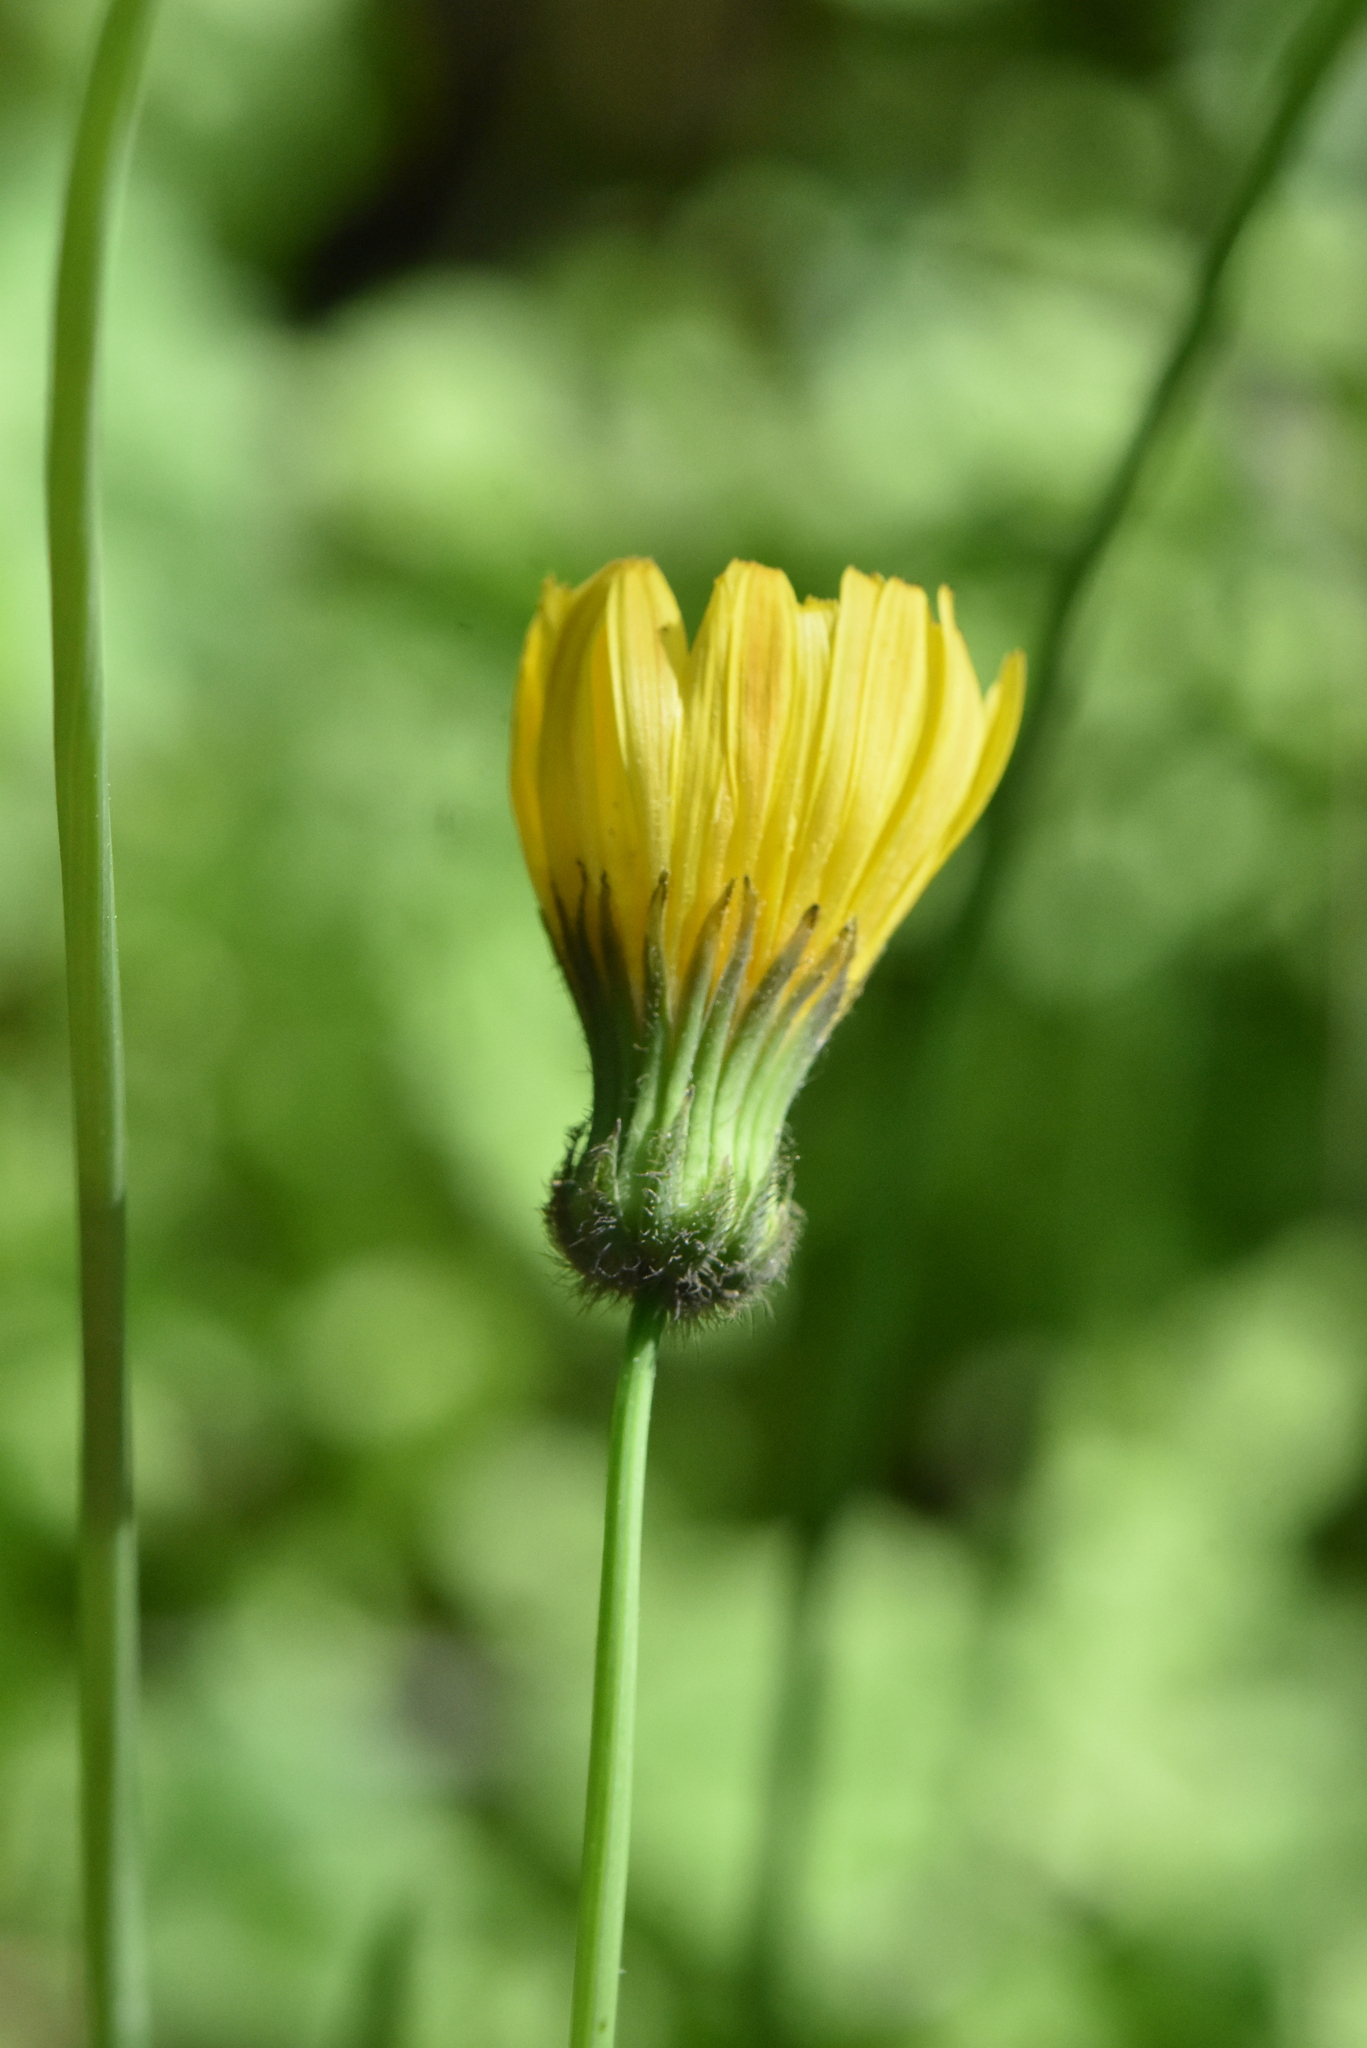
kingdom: Plantae
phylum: Tracheophyta
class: Magnoliopsida
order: Asterales
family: Asteraceae
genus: Crepis
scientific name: Crepis sancta
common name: Hawk's-beard
